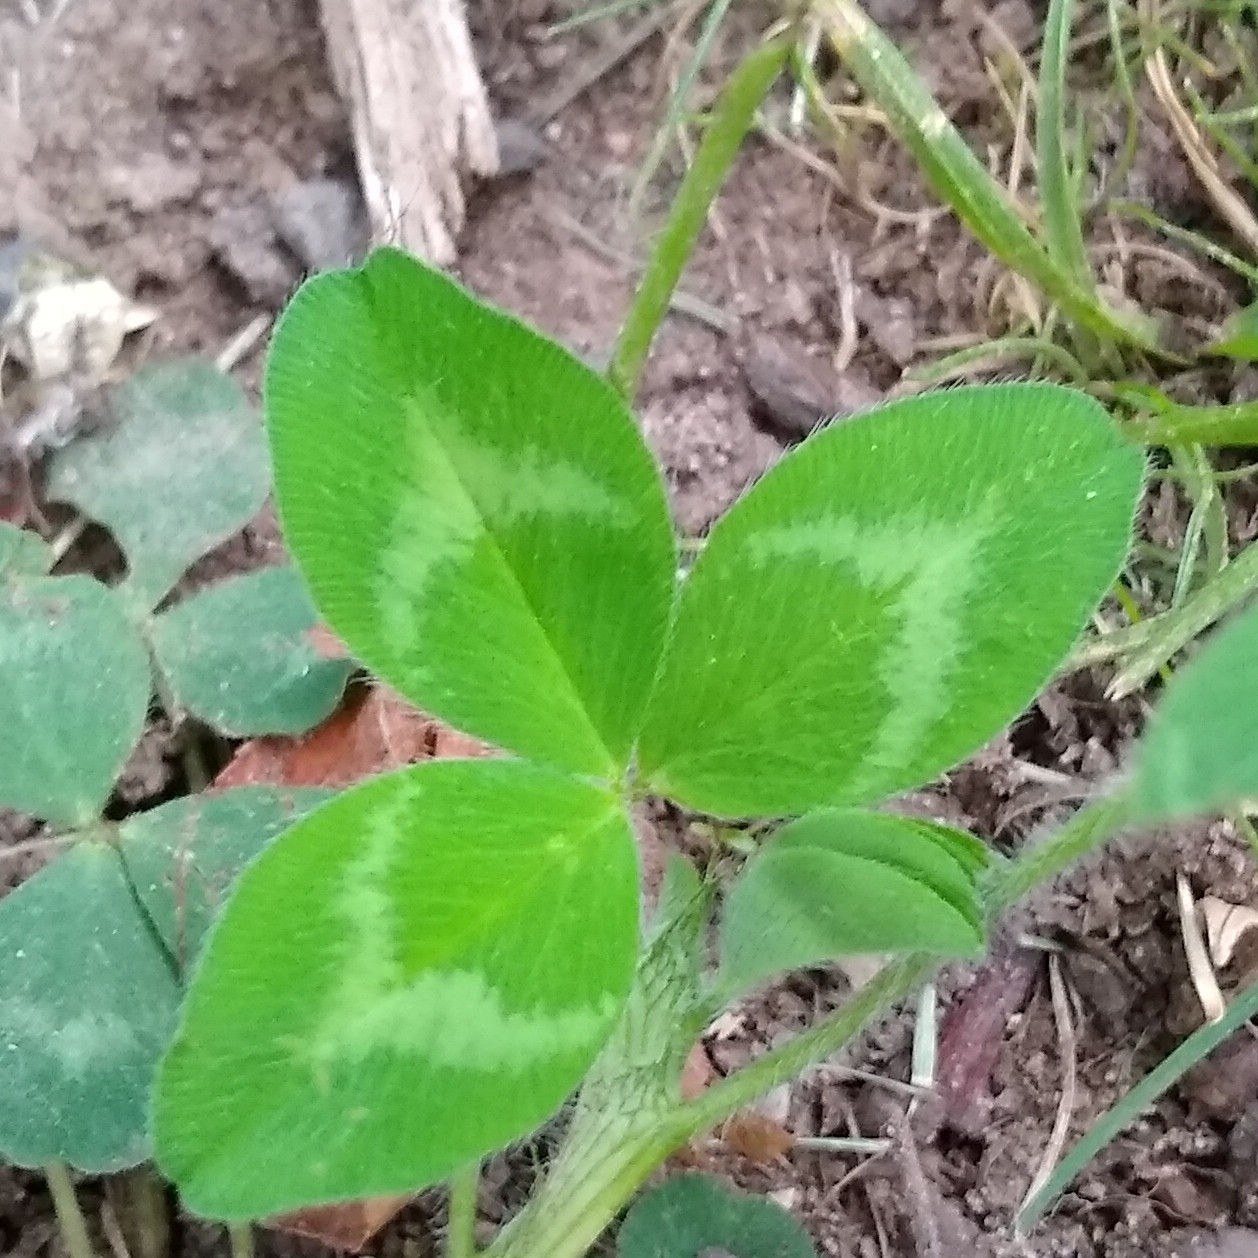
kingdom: Plantae
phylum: Tracheophyta
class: Magnoliopsida
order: Fabales
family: Fabaceae
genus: Trifolium
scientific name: Trifolium pratense
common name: Red clover
